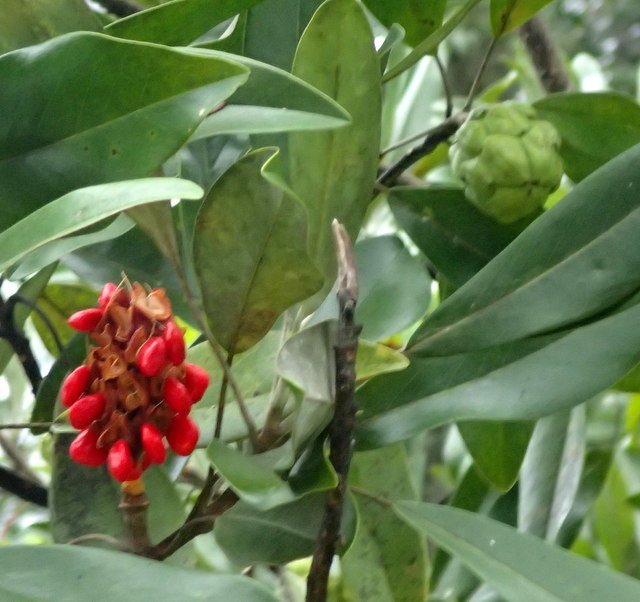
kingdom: Plantae
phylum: Tracheophyta
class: Magnoliopsida
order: Magnoliales
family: Magnoliaceae
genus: Magnolia
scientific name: Magnolia virginiana
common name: Swamp bay
